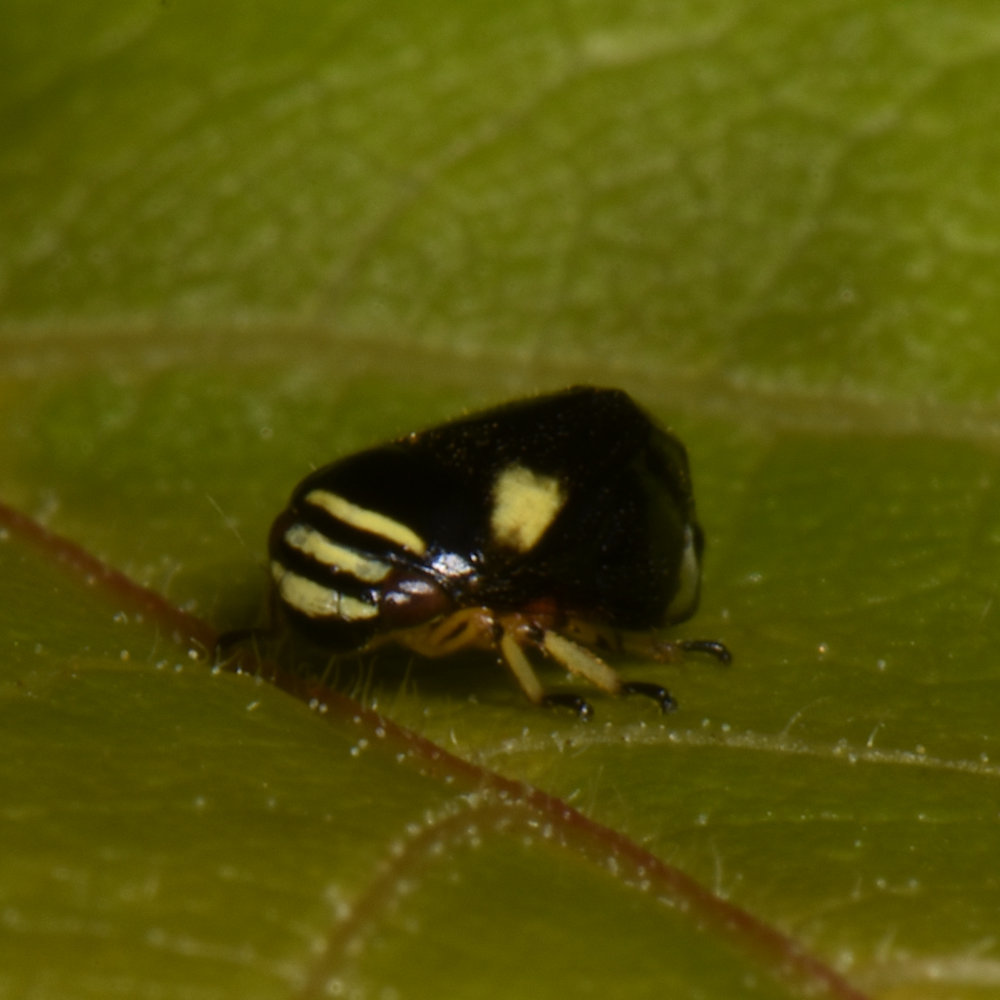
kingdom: Animalia
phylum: Arthropoda
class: Insecta
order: Hemiptera
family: Clastopteridae
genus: Clastoptera
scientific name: Clastoptera proteus
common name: Dogwood spittlebug
